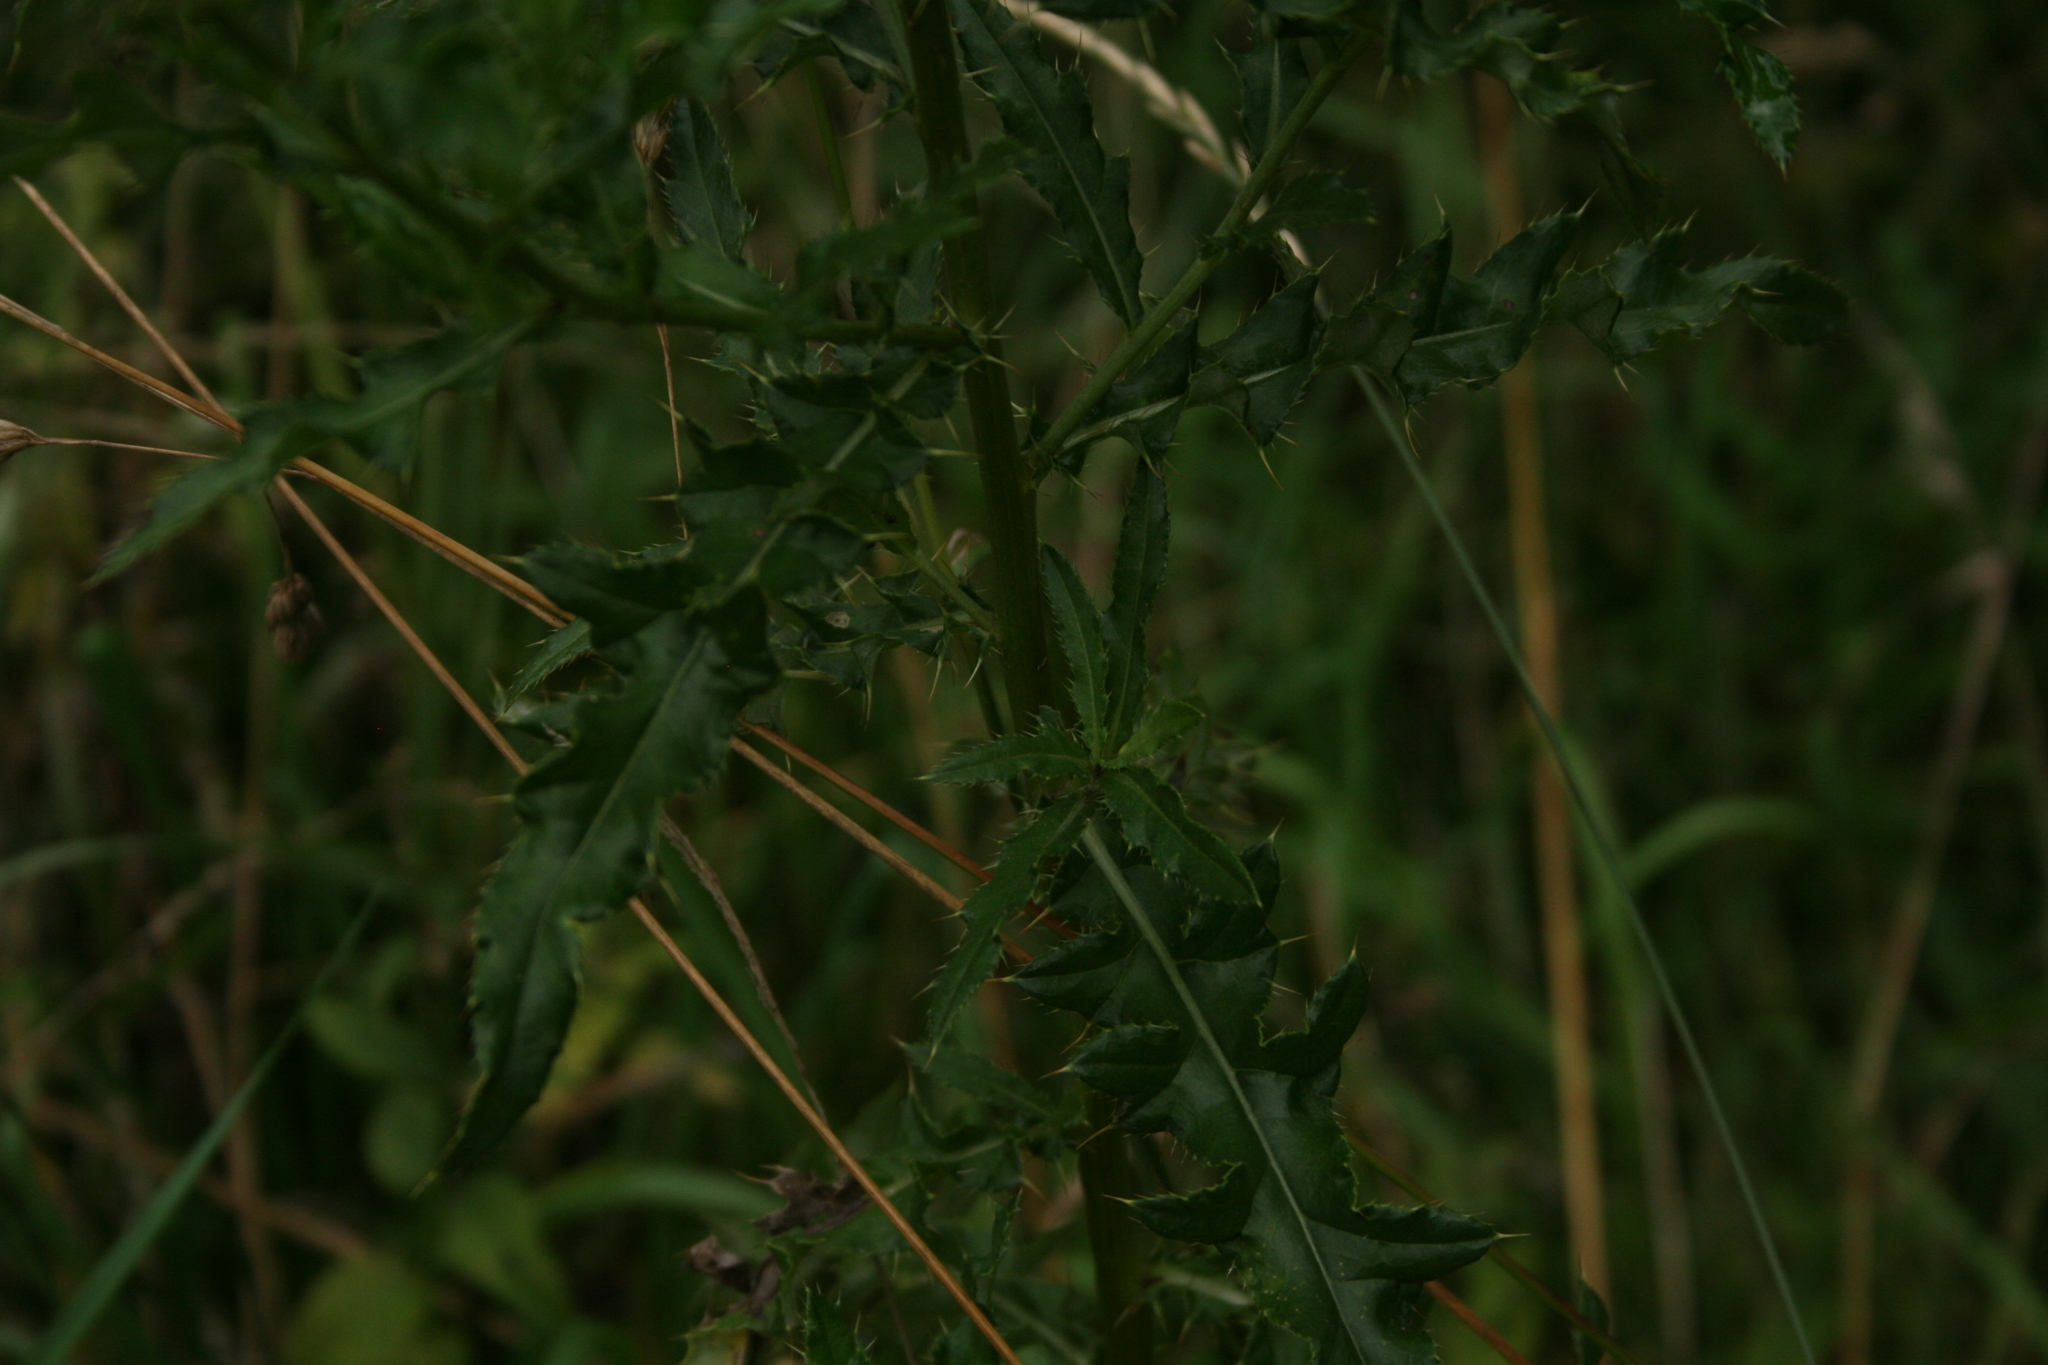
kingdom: Plantae
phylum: Tracheophyta
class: Magnoliopsida
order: Asterales
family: Asteraceae
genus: Cirsium
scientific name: Cirsium arvense
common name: Creeping thistle
